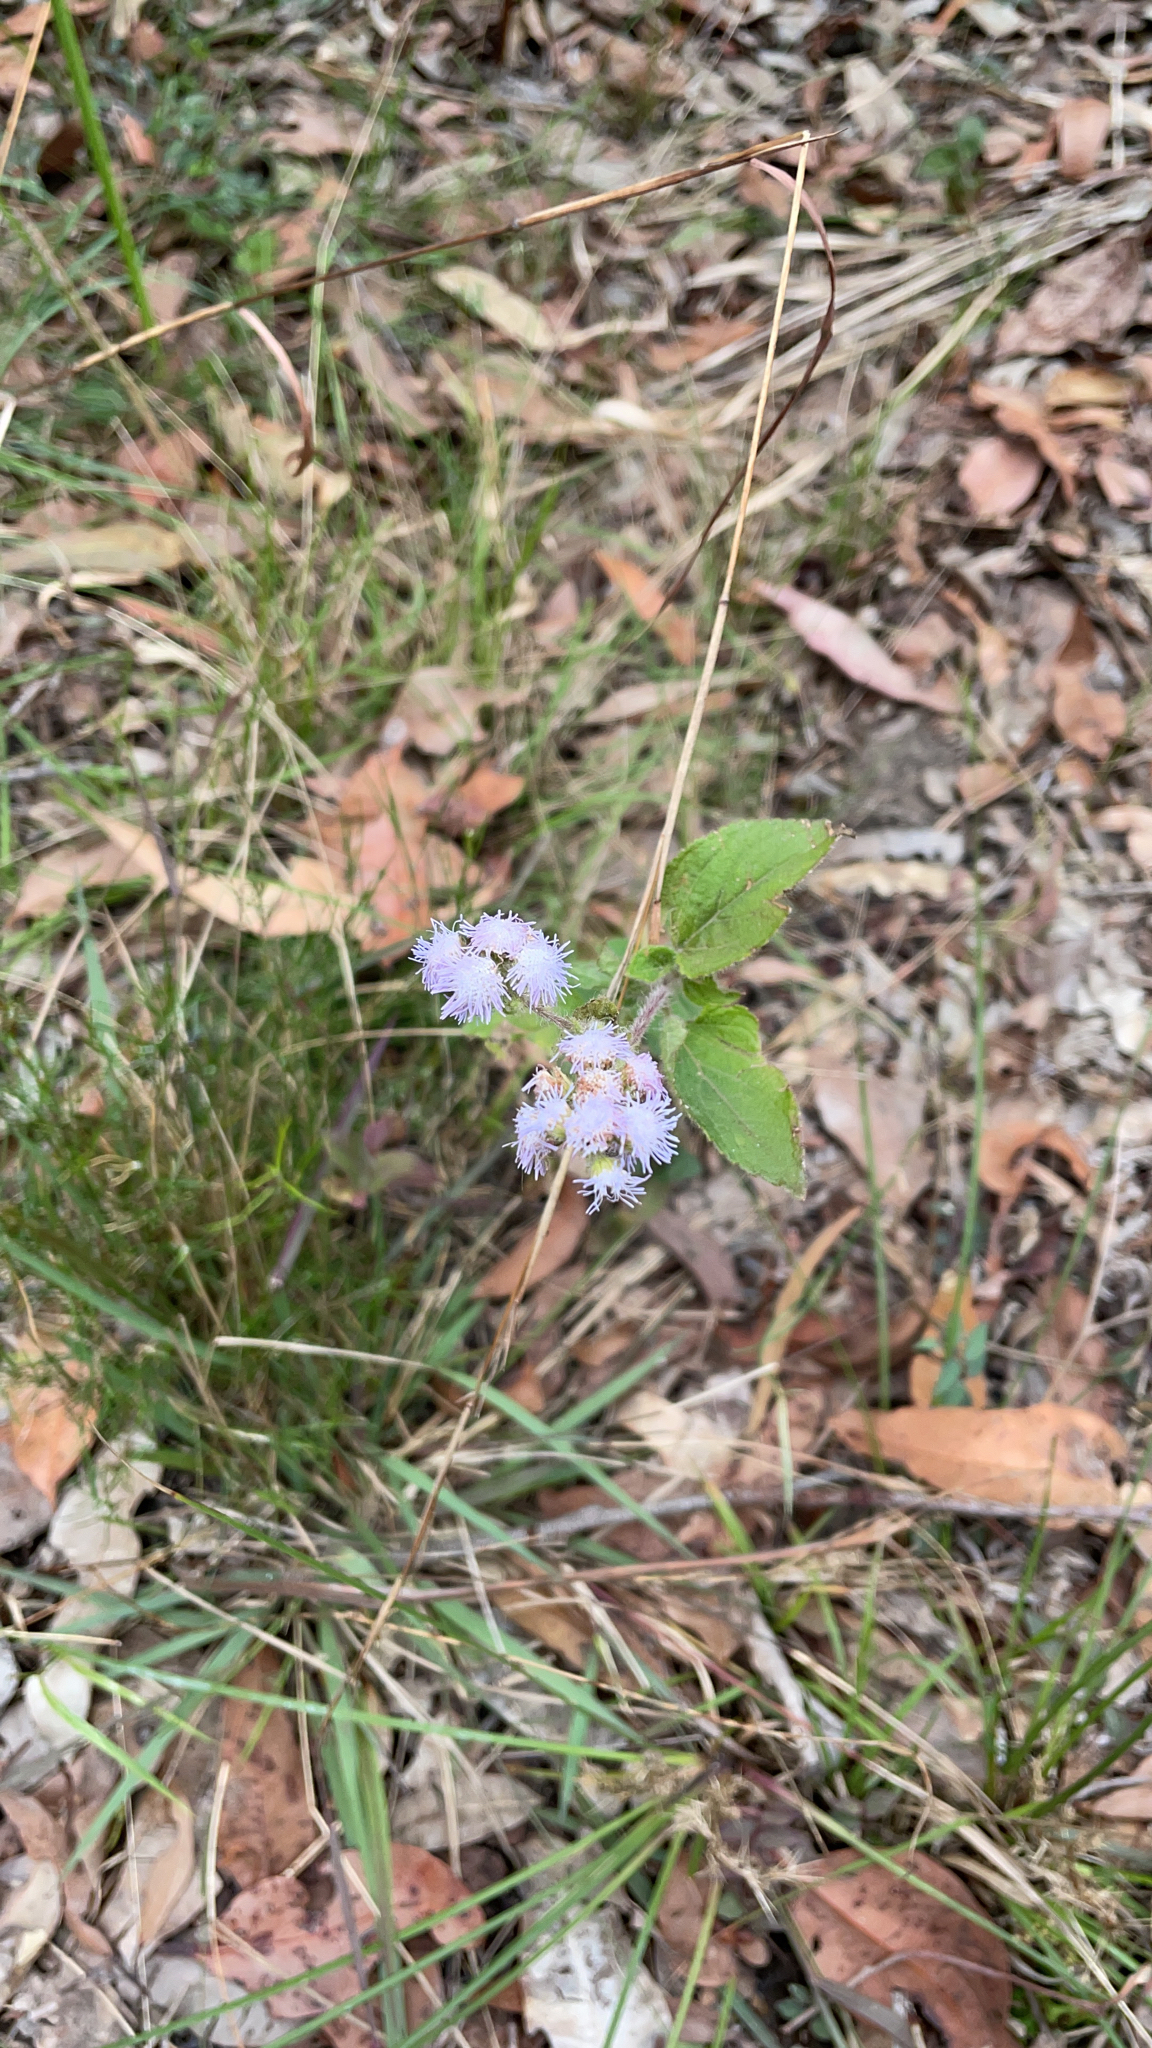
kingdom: Plantae
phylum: Tracheophyta
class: Magnoliopsida
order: Asterales
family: Asteraceae
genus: Ageratum
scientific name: Ageratum houstonianum
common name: Bluemink
